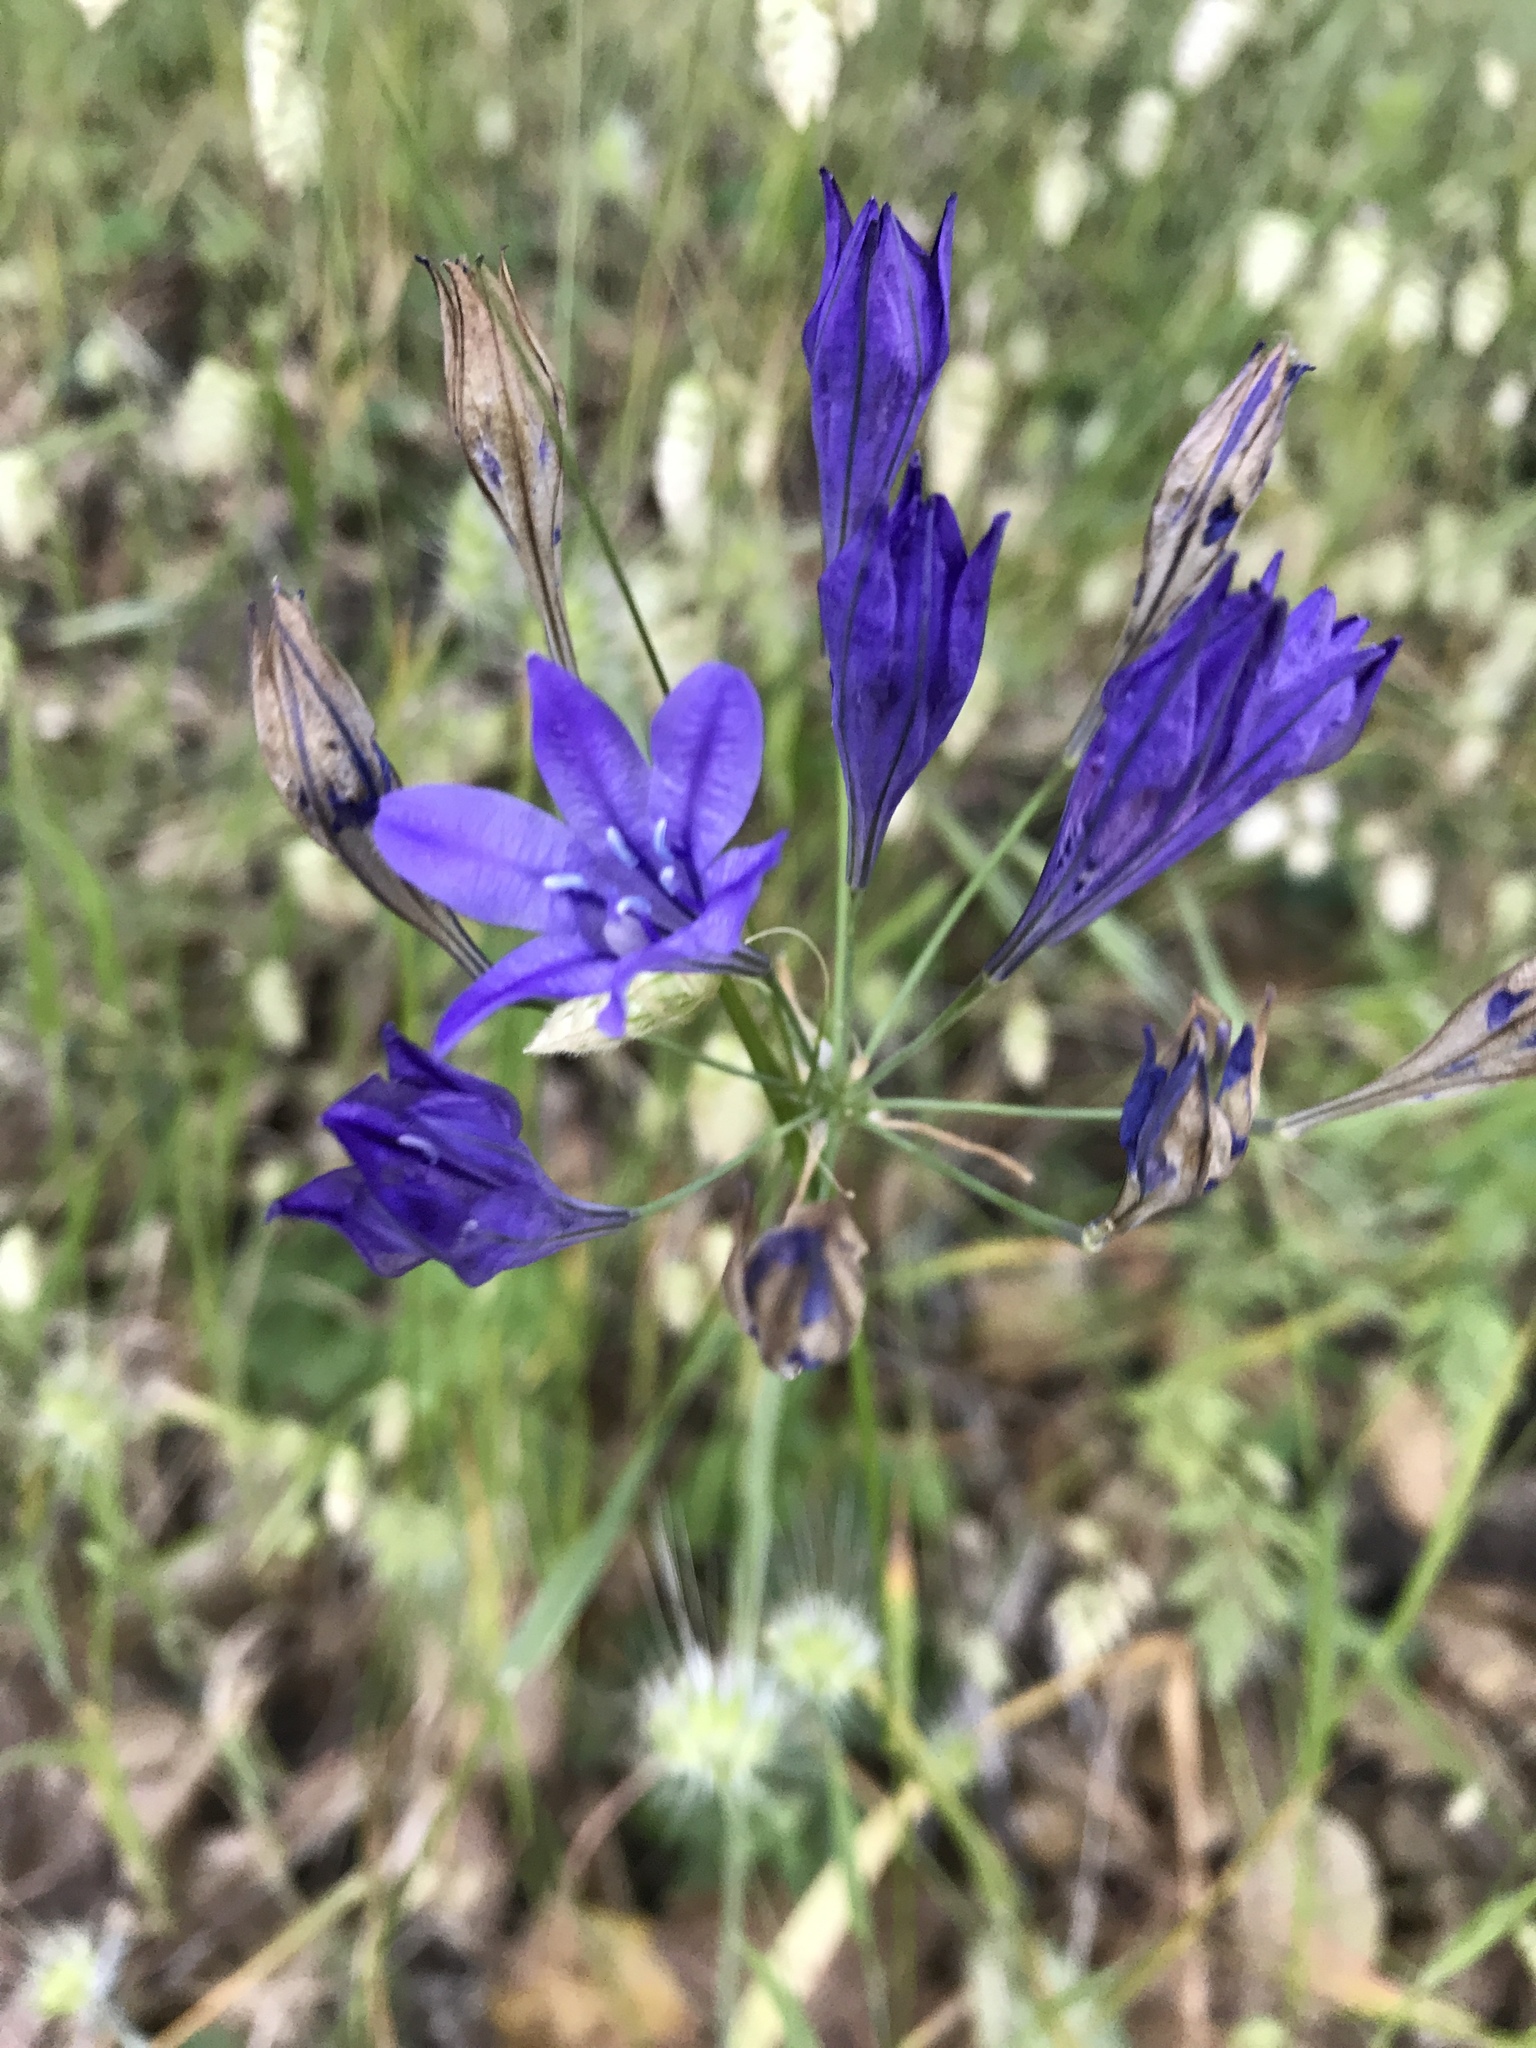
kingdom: Plantae
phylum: Tracheophyta
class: Liliopsida
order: Asparagales
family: Asparagaceae
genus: Triteleia
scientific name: Triteleia laxa
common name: Triplet-lily
